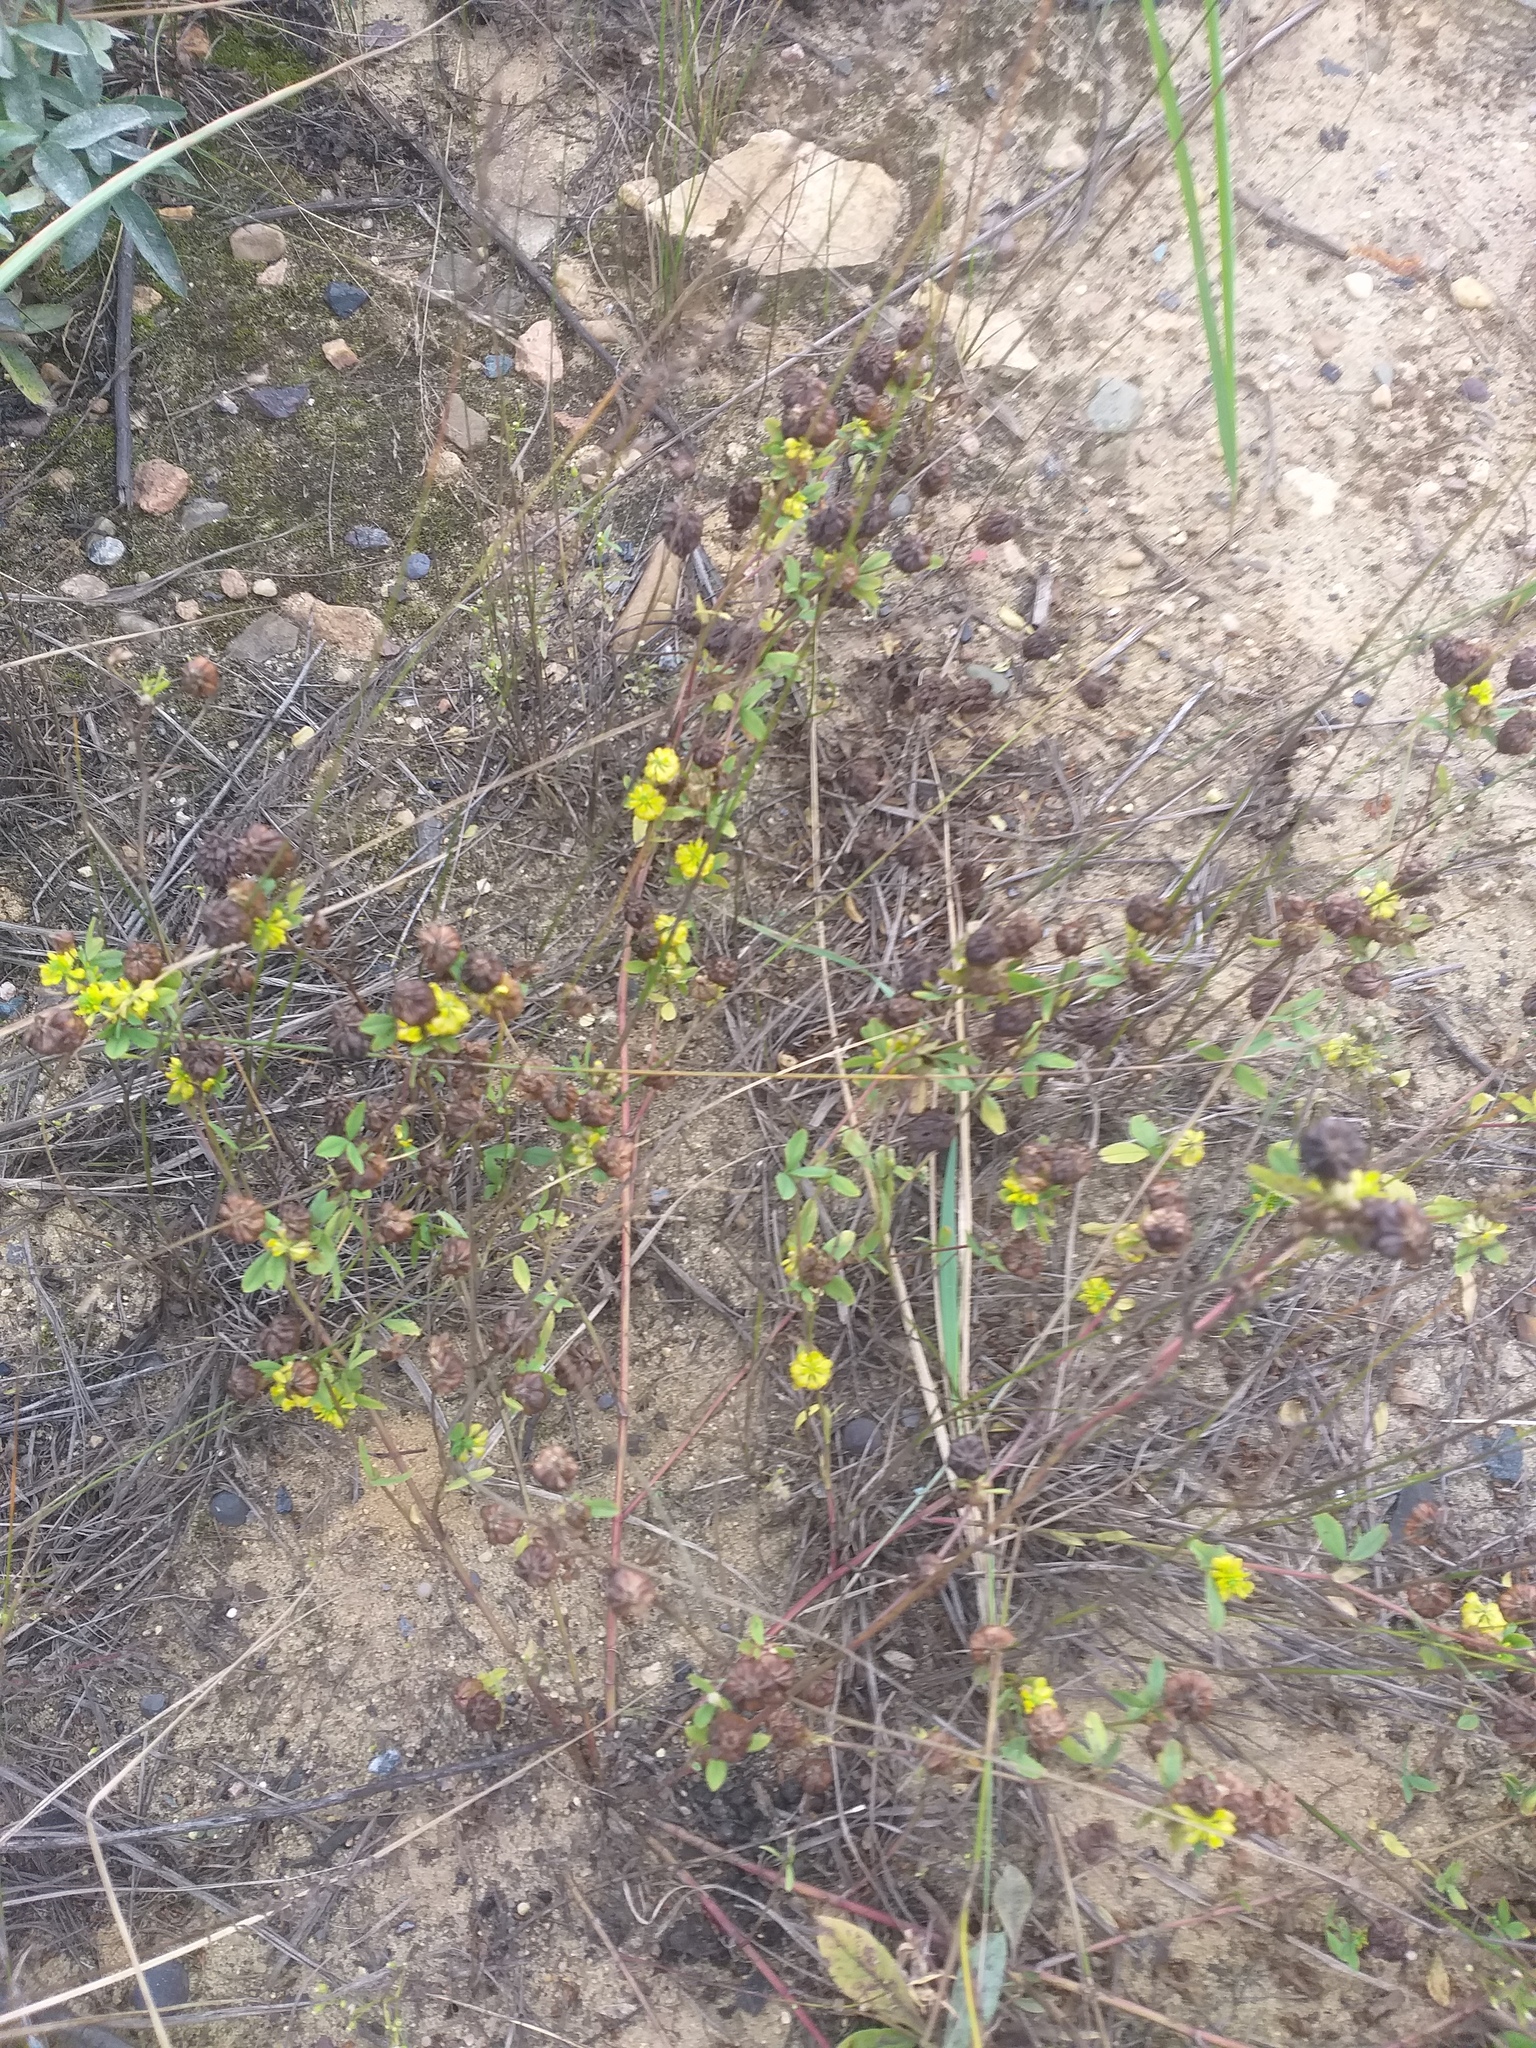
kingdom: Plantae
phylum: Tracheophyta
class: Magnoliopsida
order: Fabales
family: Fabaceae
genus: Trifolium
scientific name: Trifolium aureum
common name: Golden clover
